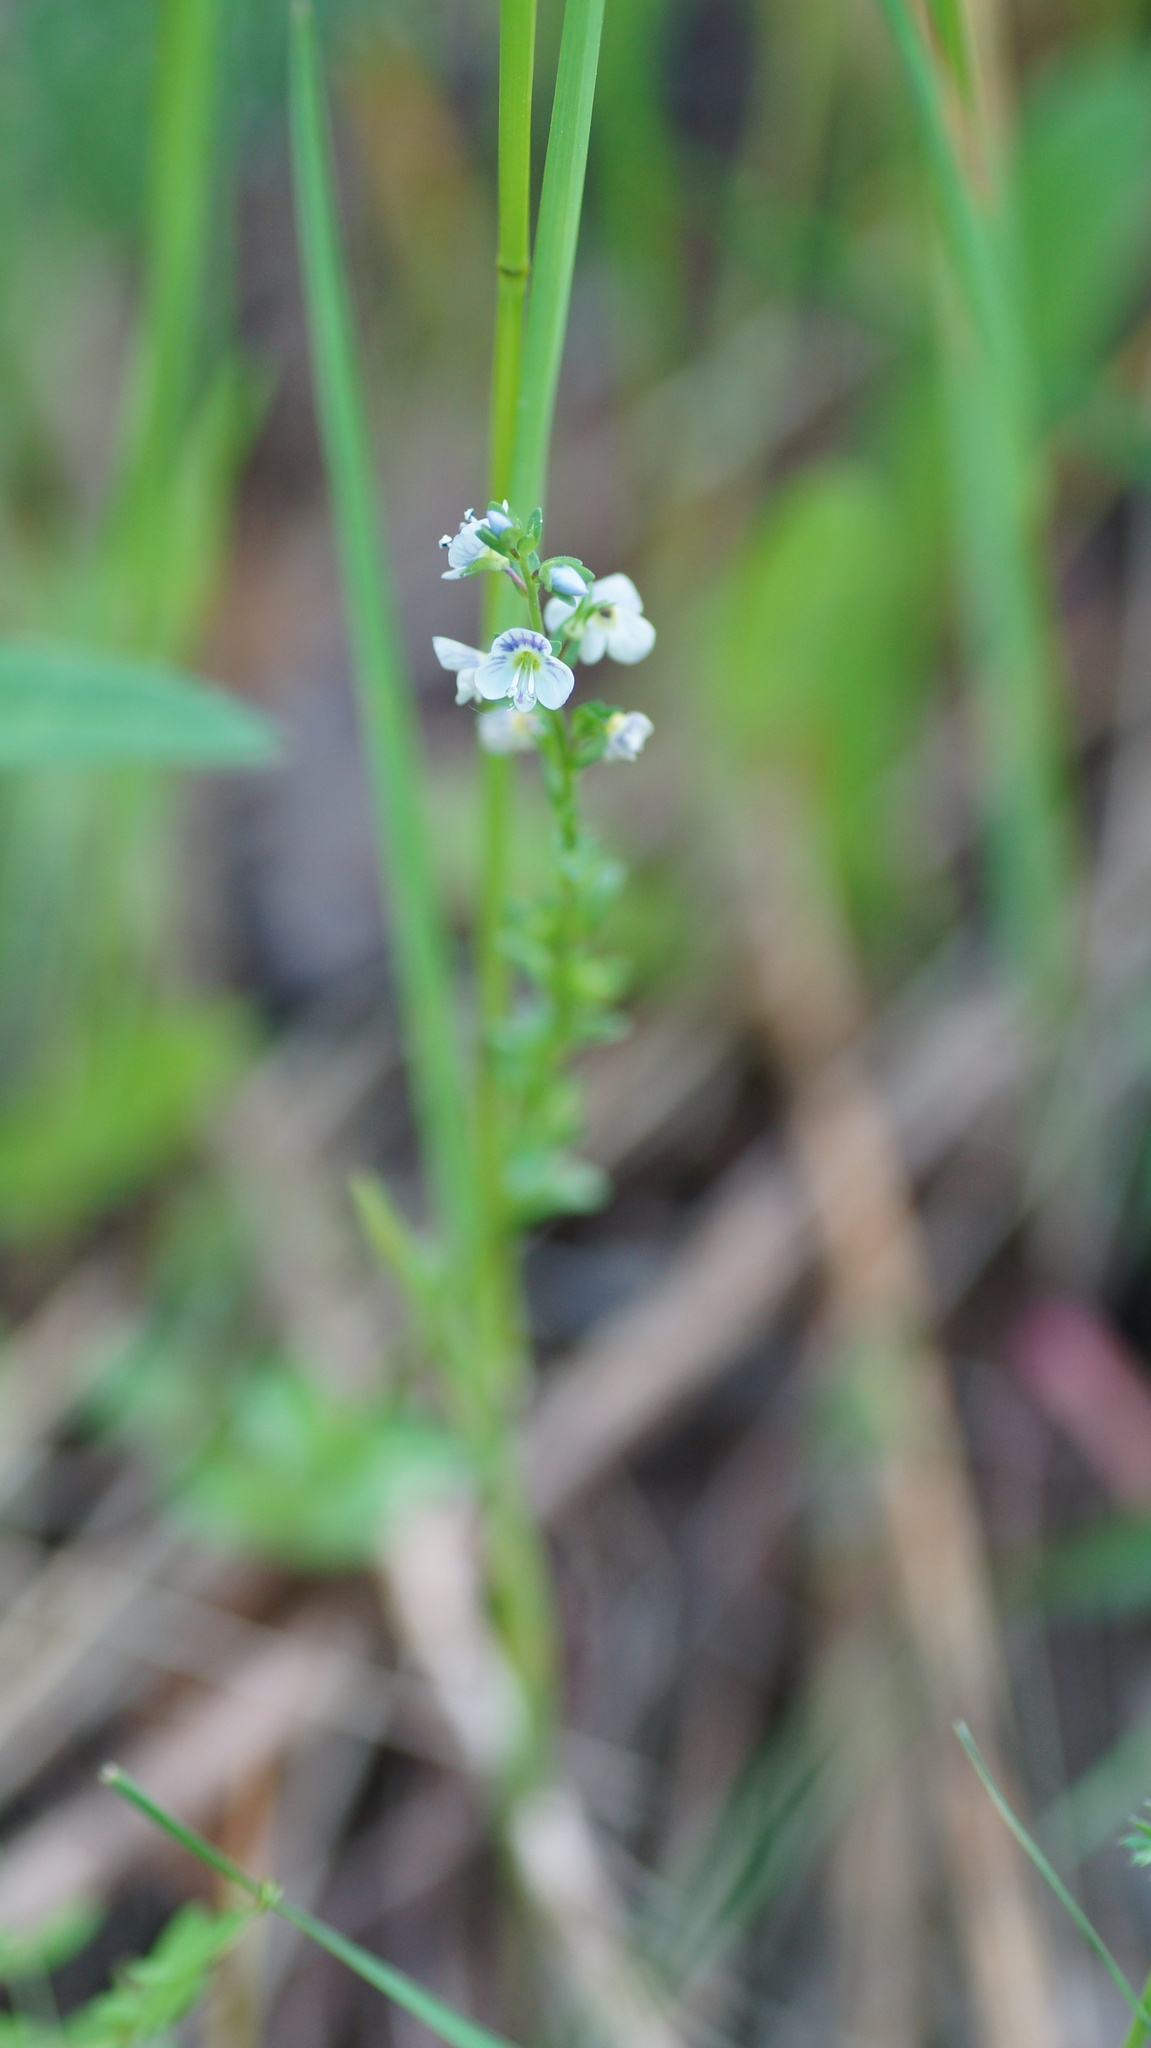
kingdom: Plantae
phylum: Tracheophyta
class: Magnoliopsida
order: Lamiales
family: Plantaginaceae
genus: Veronica
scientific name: Veronica serpyllifolia
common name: Thyme-leaved speedwell
